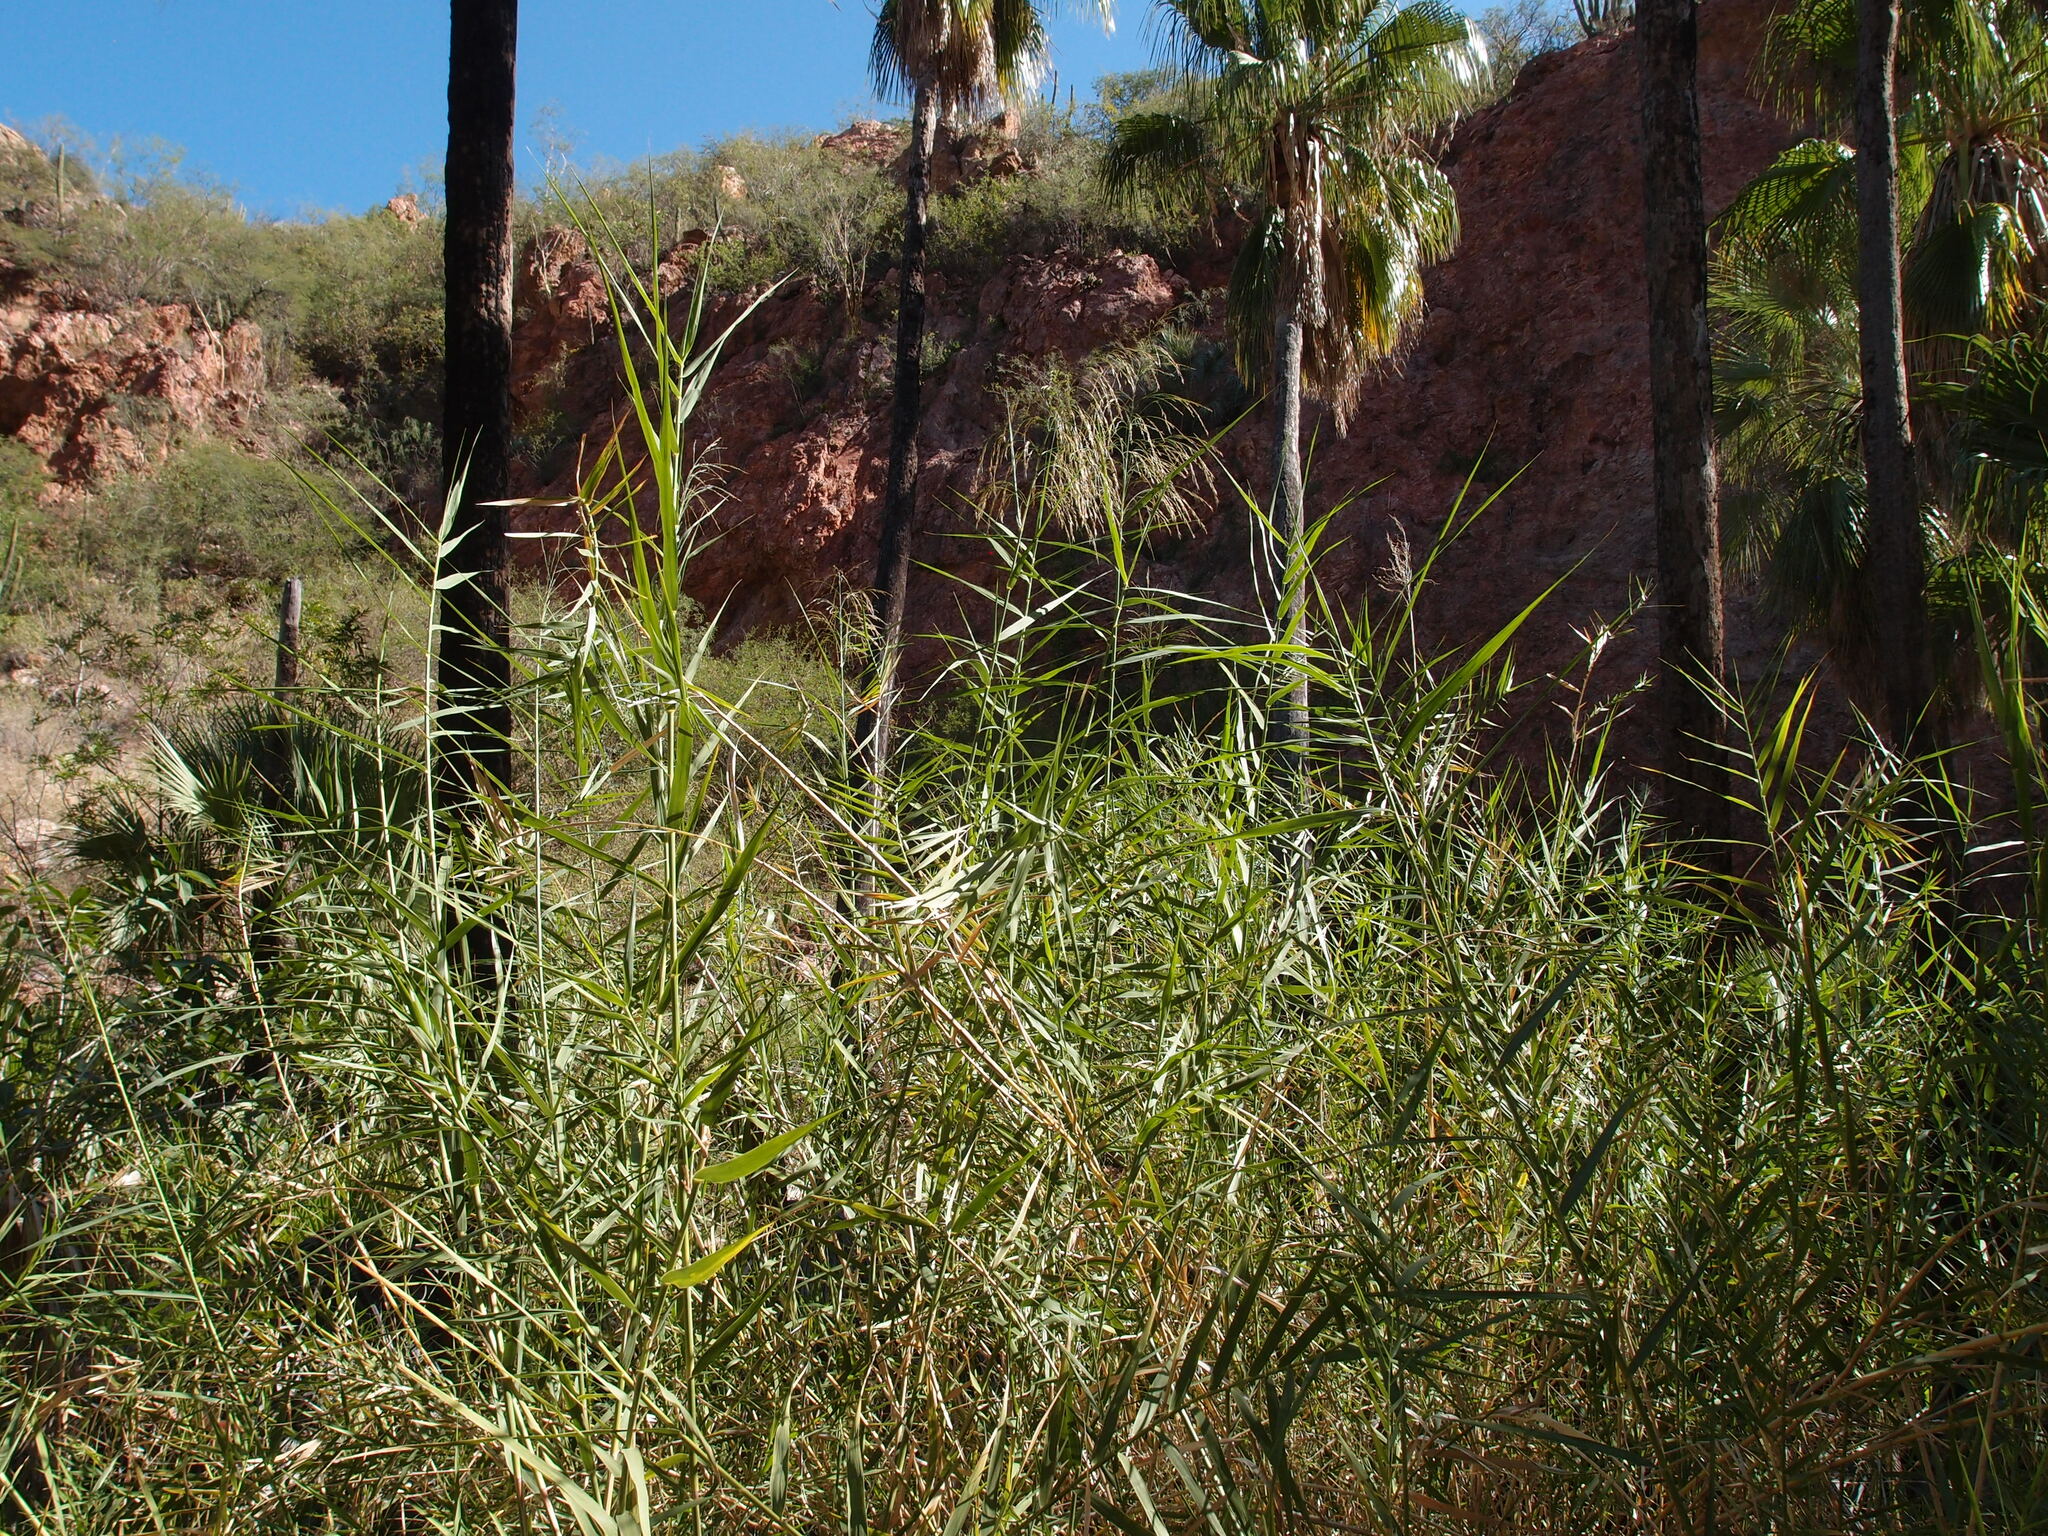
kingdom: Plantae
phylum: Tracheophyta
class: Liliopsida
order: Poales
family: Poaceae
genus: Phragmites
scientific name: Phragmites australis
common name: Common reed
